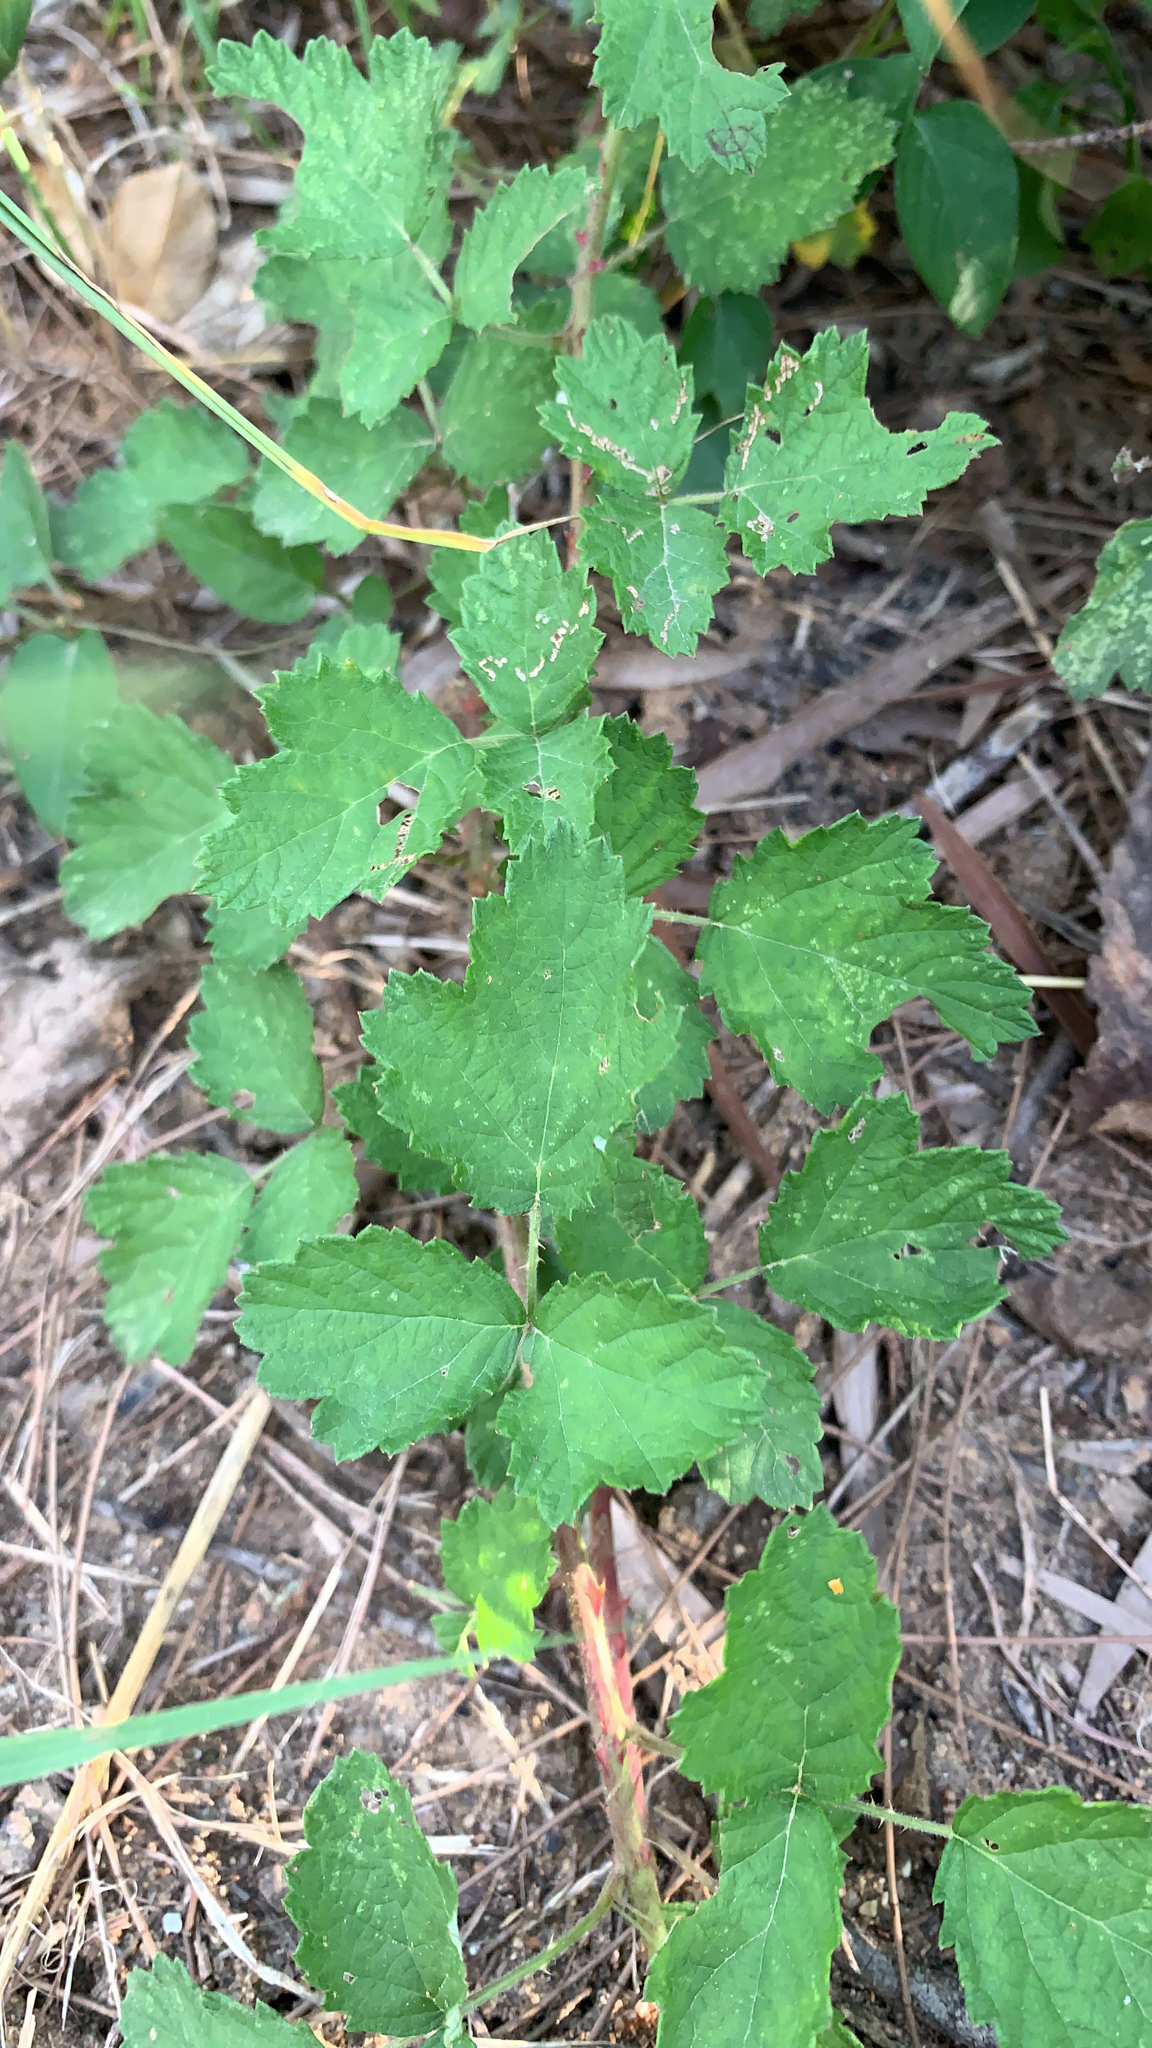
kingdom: Plantae
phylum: Tracheophyta
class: Magnoliopsida
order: Rosales
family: Rosaceae
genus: Rubus
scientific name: Rubus parvifolius
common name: Threeleaf blackberry
